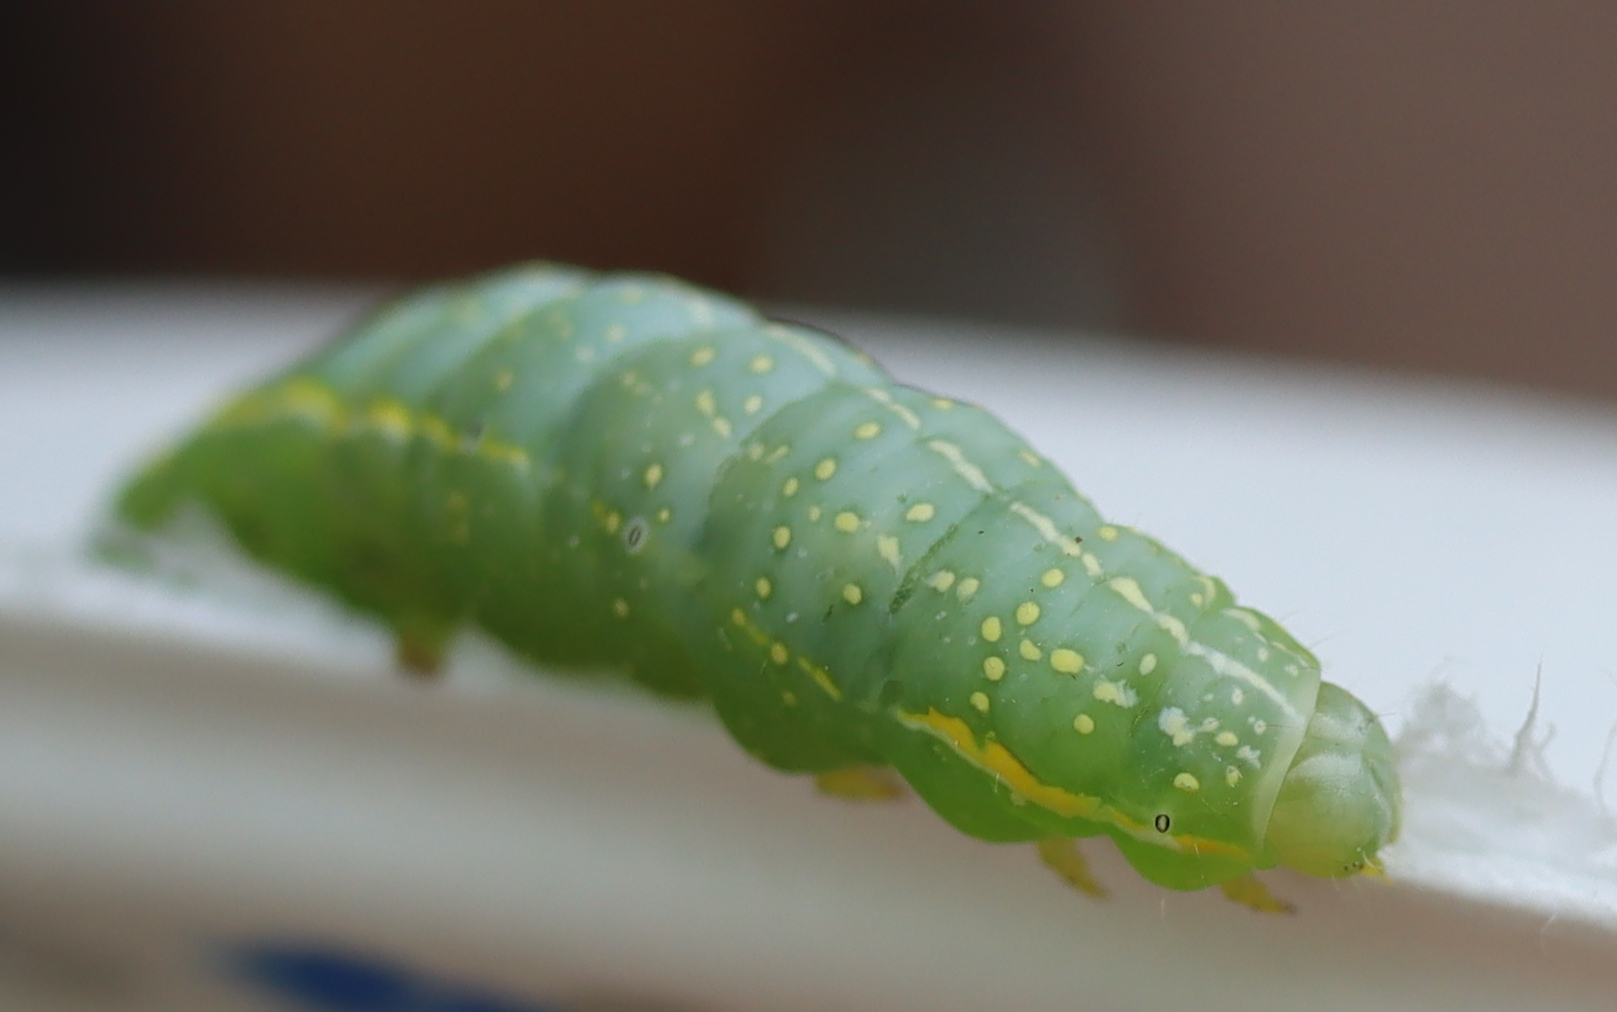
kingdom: Animalia
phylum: Arthropoda
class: Insecta
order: Lepidoptera
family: Noctuidae
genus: Amphipyra
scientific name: Amphipyra pyramidoides
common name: American copper underwing
